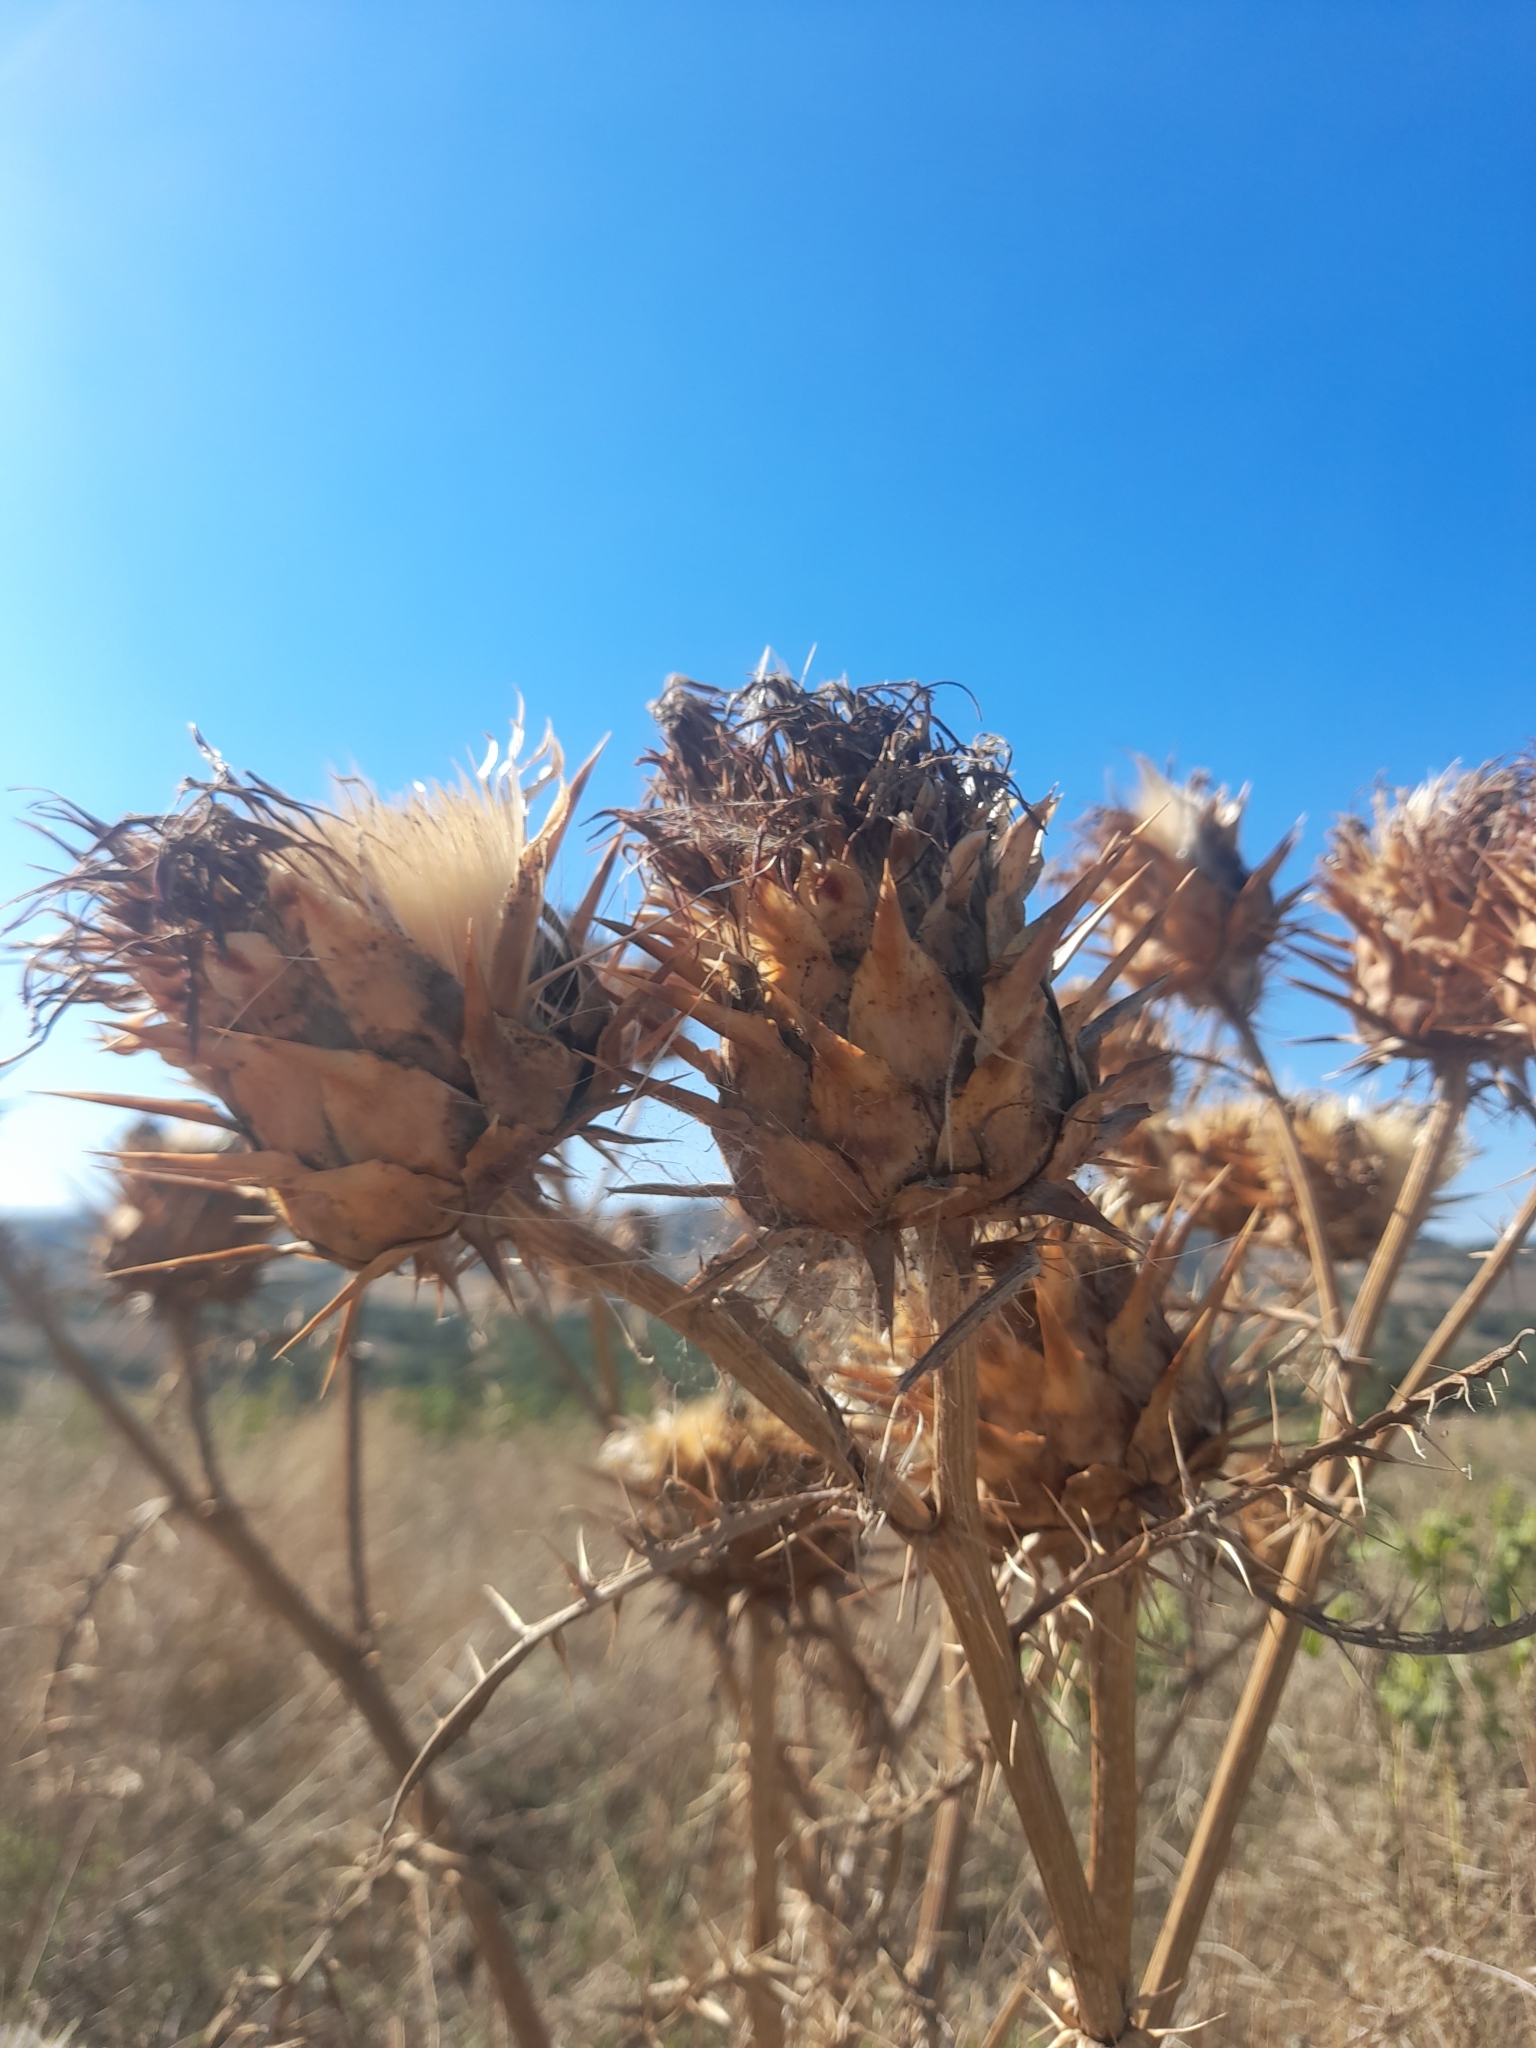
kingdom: Plantae
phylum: Tracheophyta
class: Magnoliopsida
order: Asterales
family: Asteraceae
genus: Cynara
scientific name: Cynara cardunculus
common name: Globe artichoke
